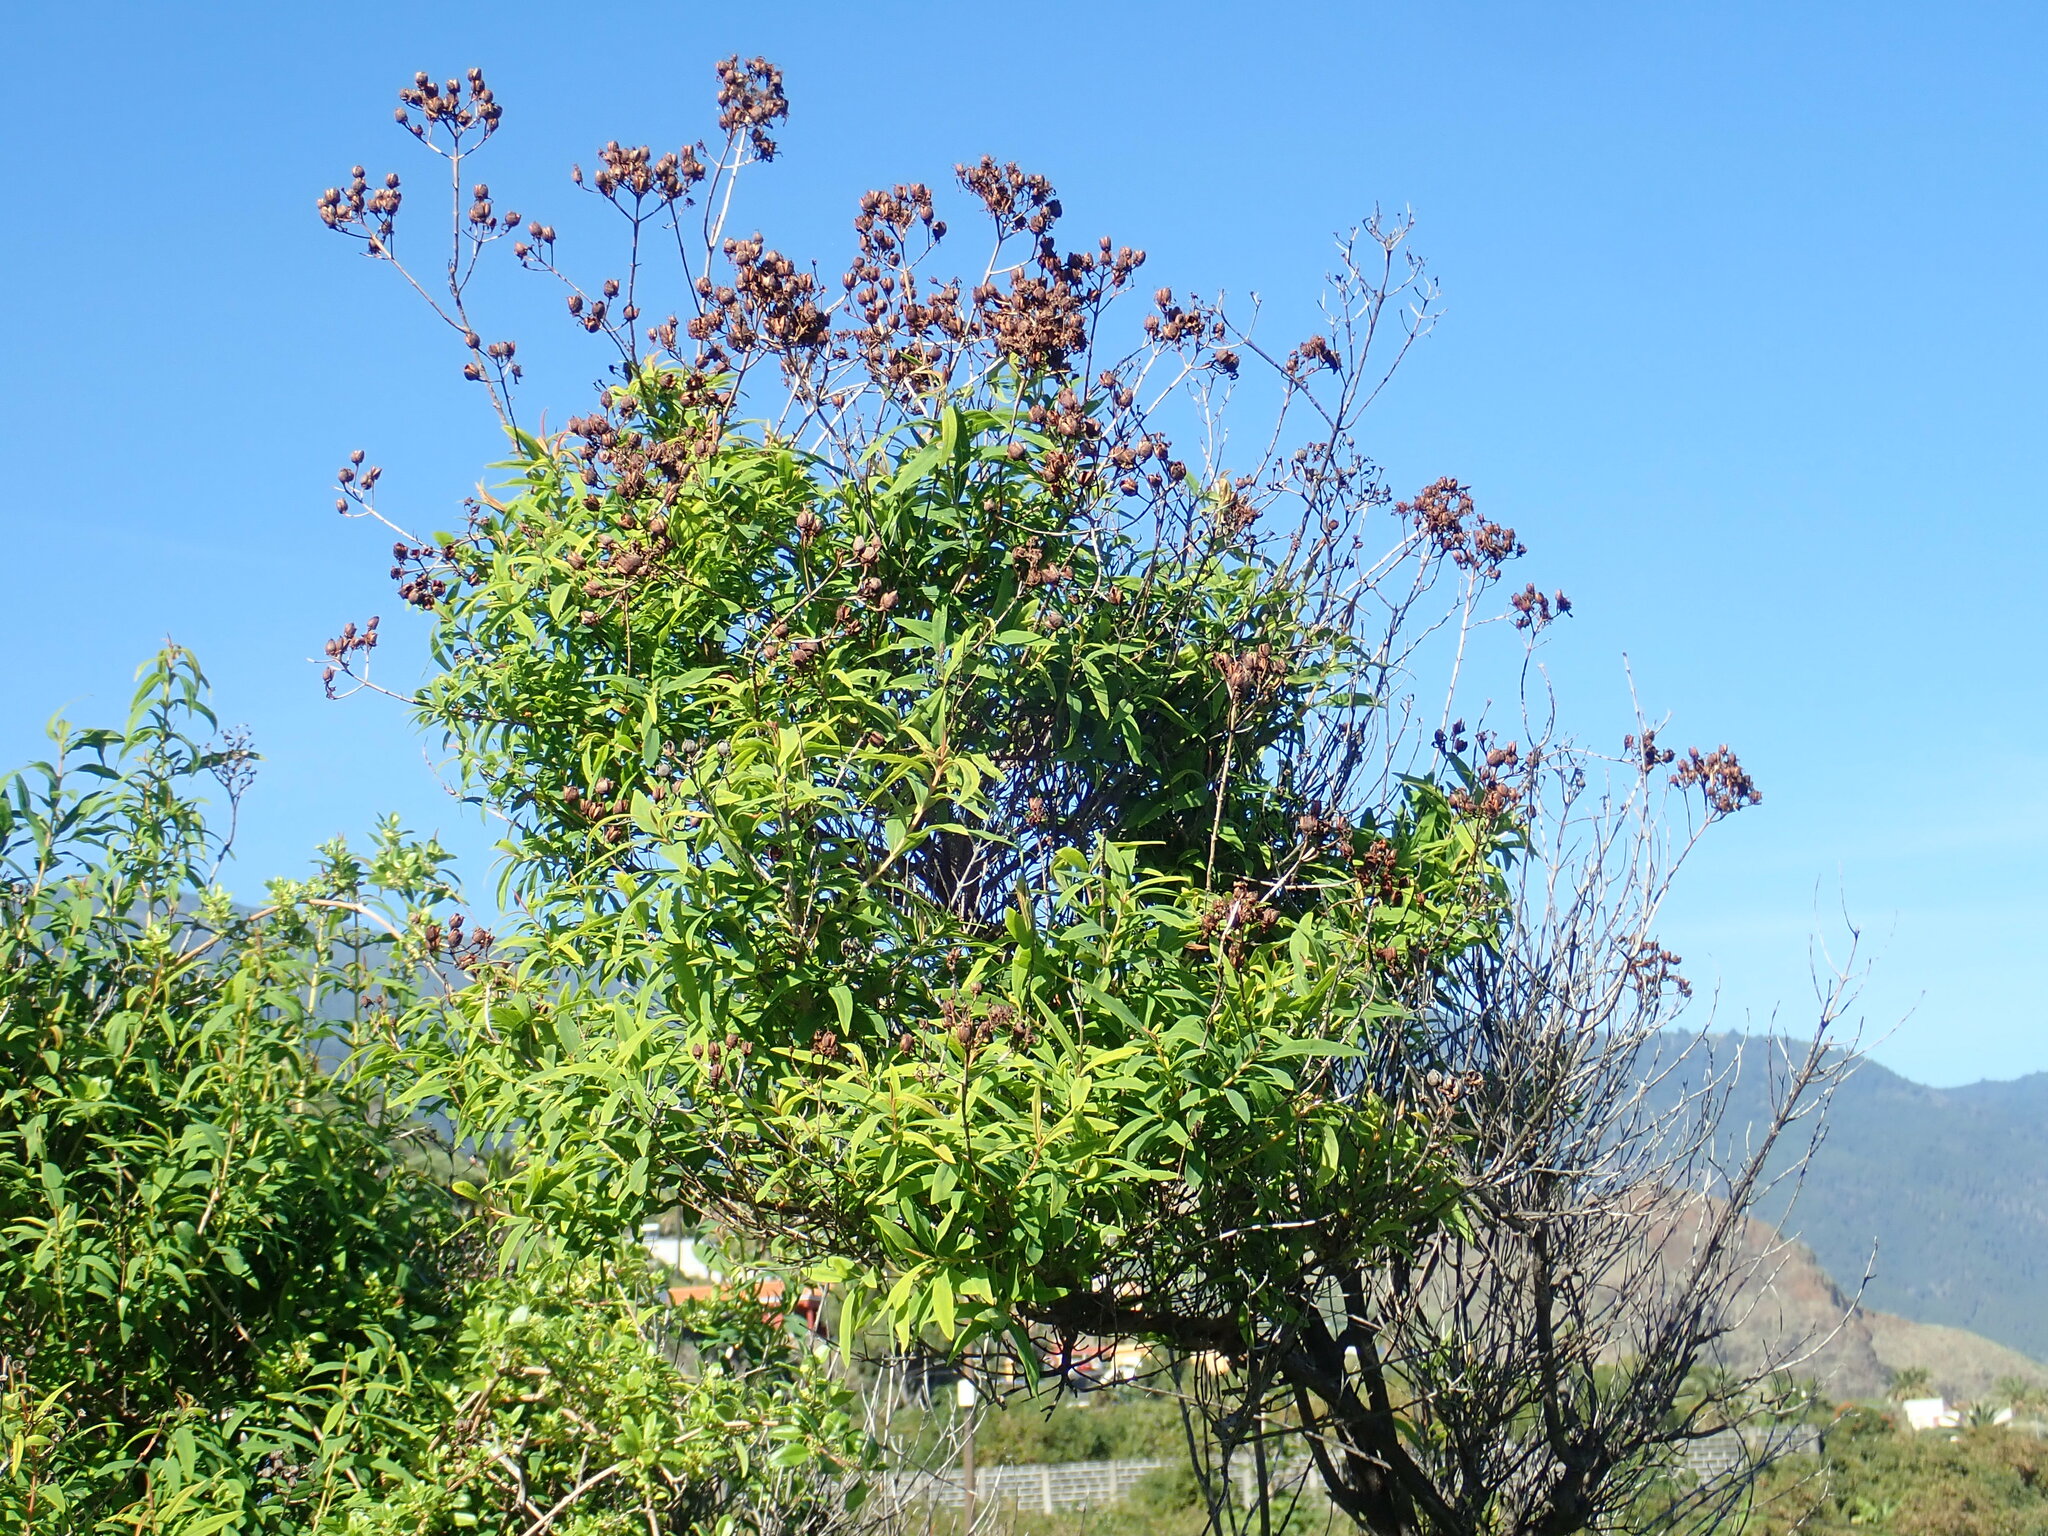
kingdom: Plantae
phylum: Tracheophyta
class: Magnoliopsida
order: Malpighiales
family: Hypericaceae
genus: Hypericum
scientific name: Hypericum canariense
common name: Canary island st. johnswort
